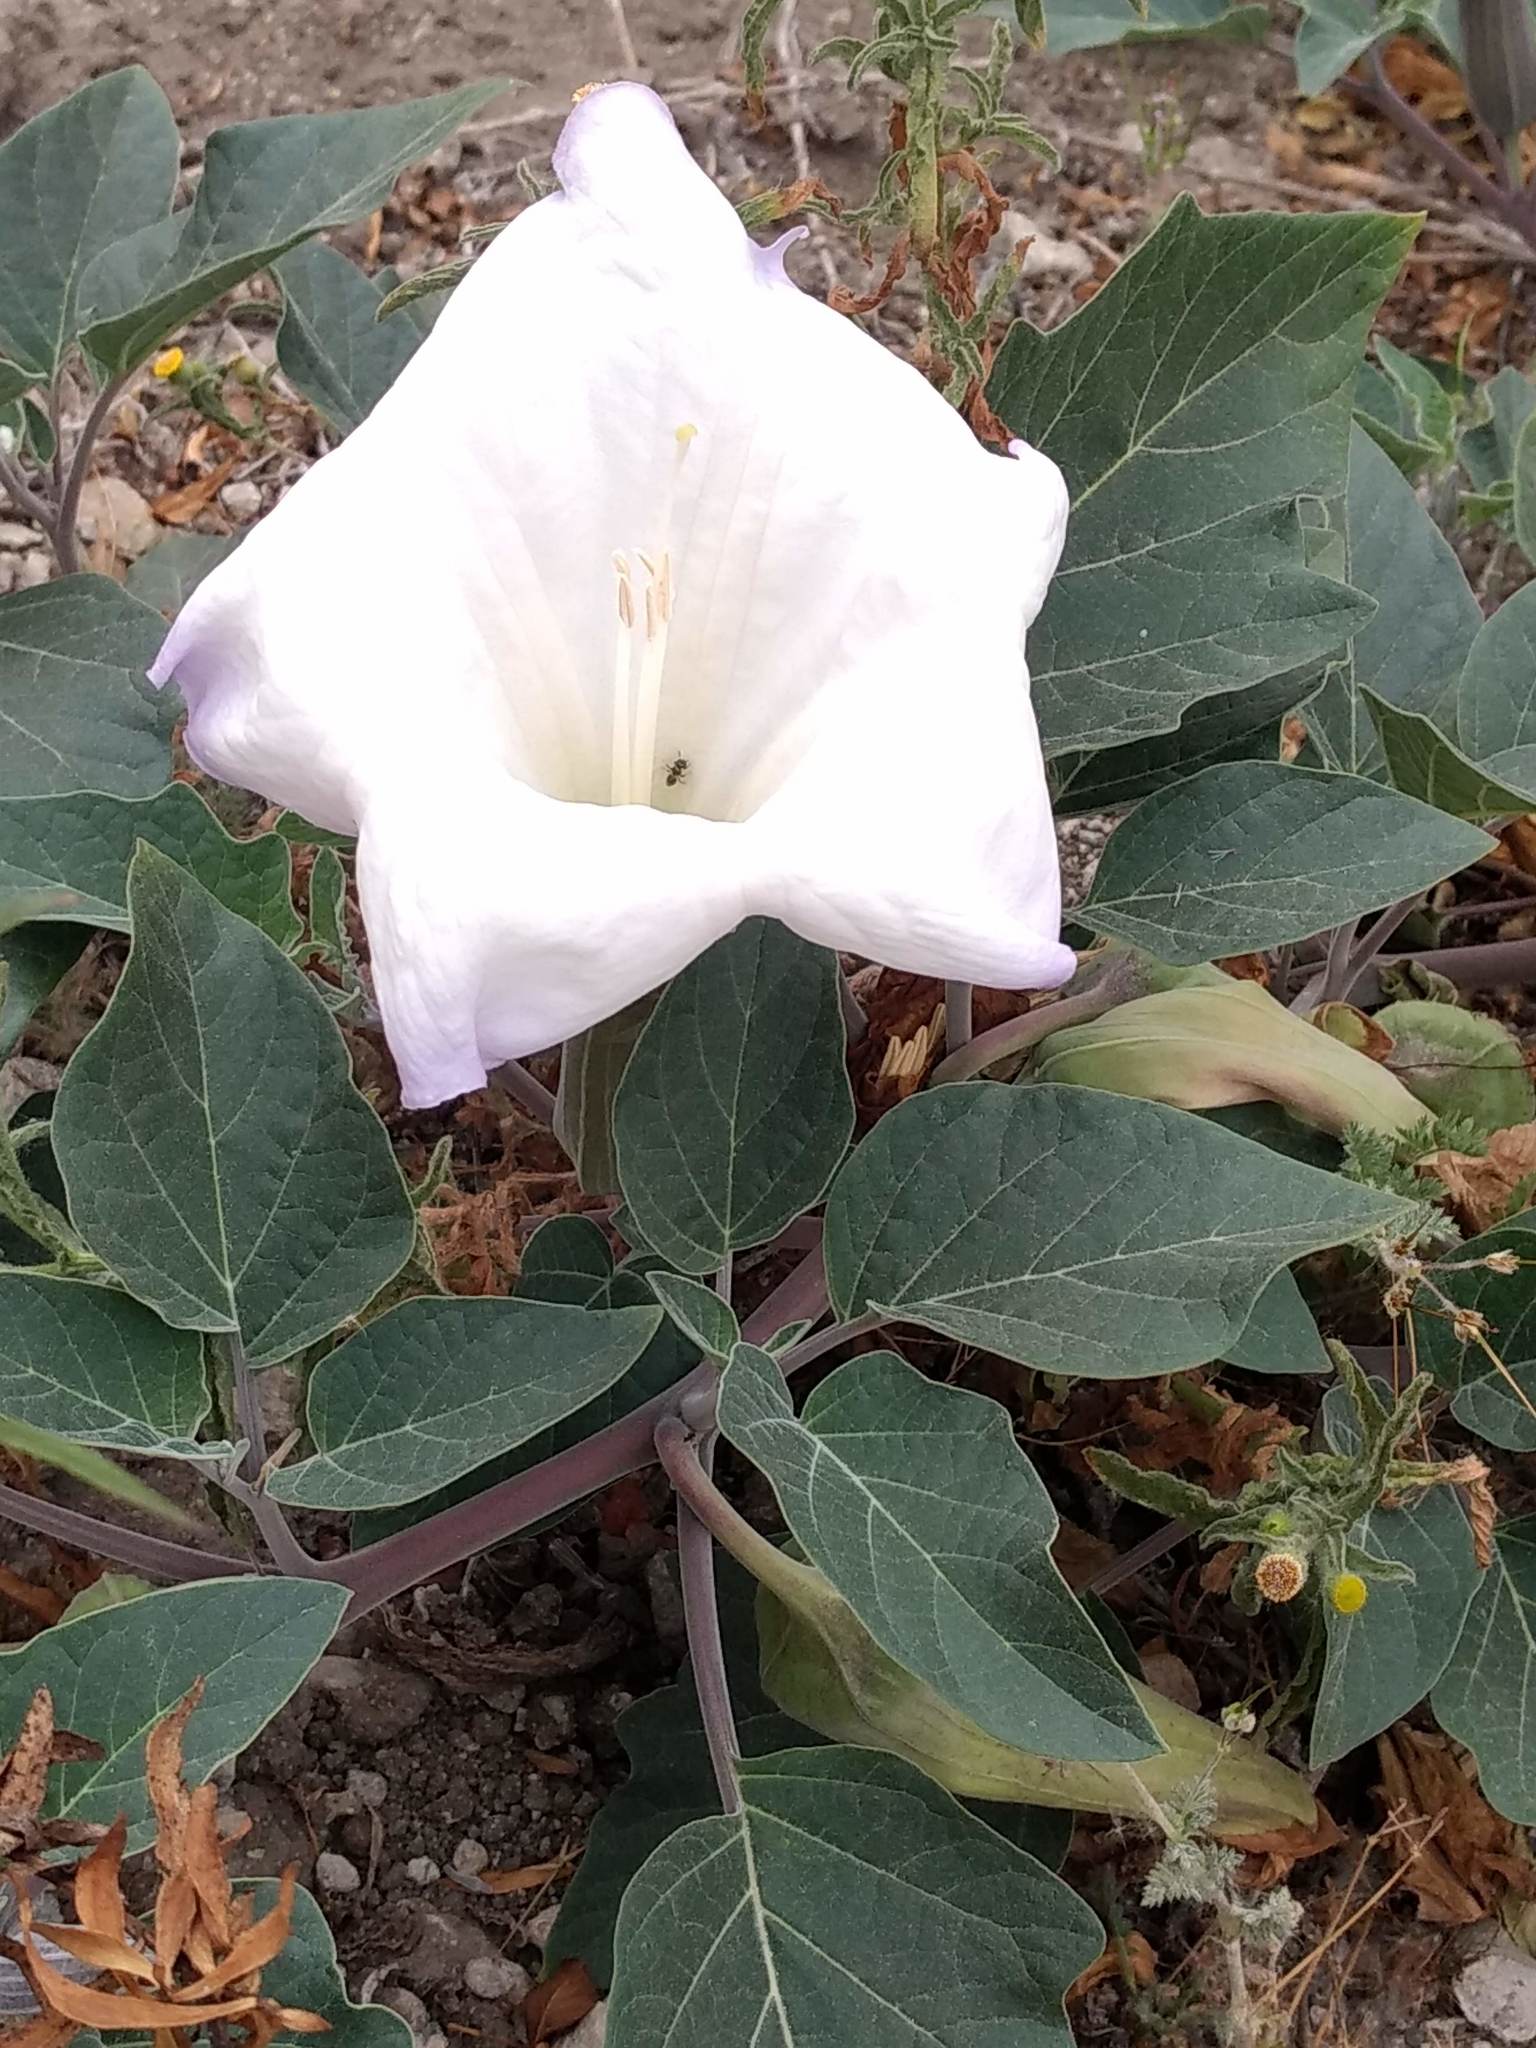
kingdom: Plantae
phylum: Tracheophyta
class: Magnoliopsida
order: Solanales
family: Solanaceae
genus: Datura
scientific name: Datura wrightii
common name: Sacred thorn-apple
